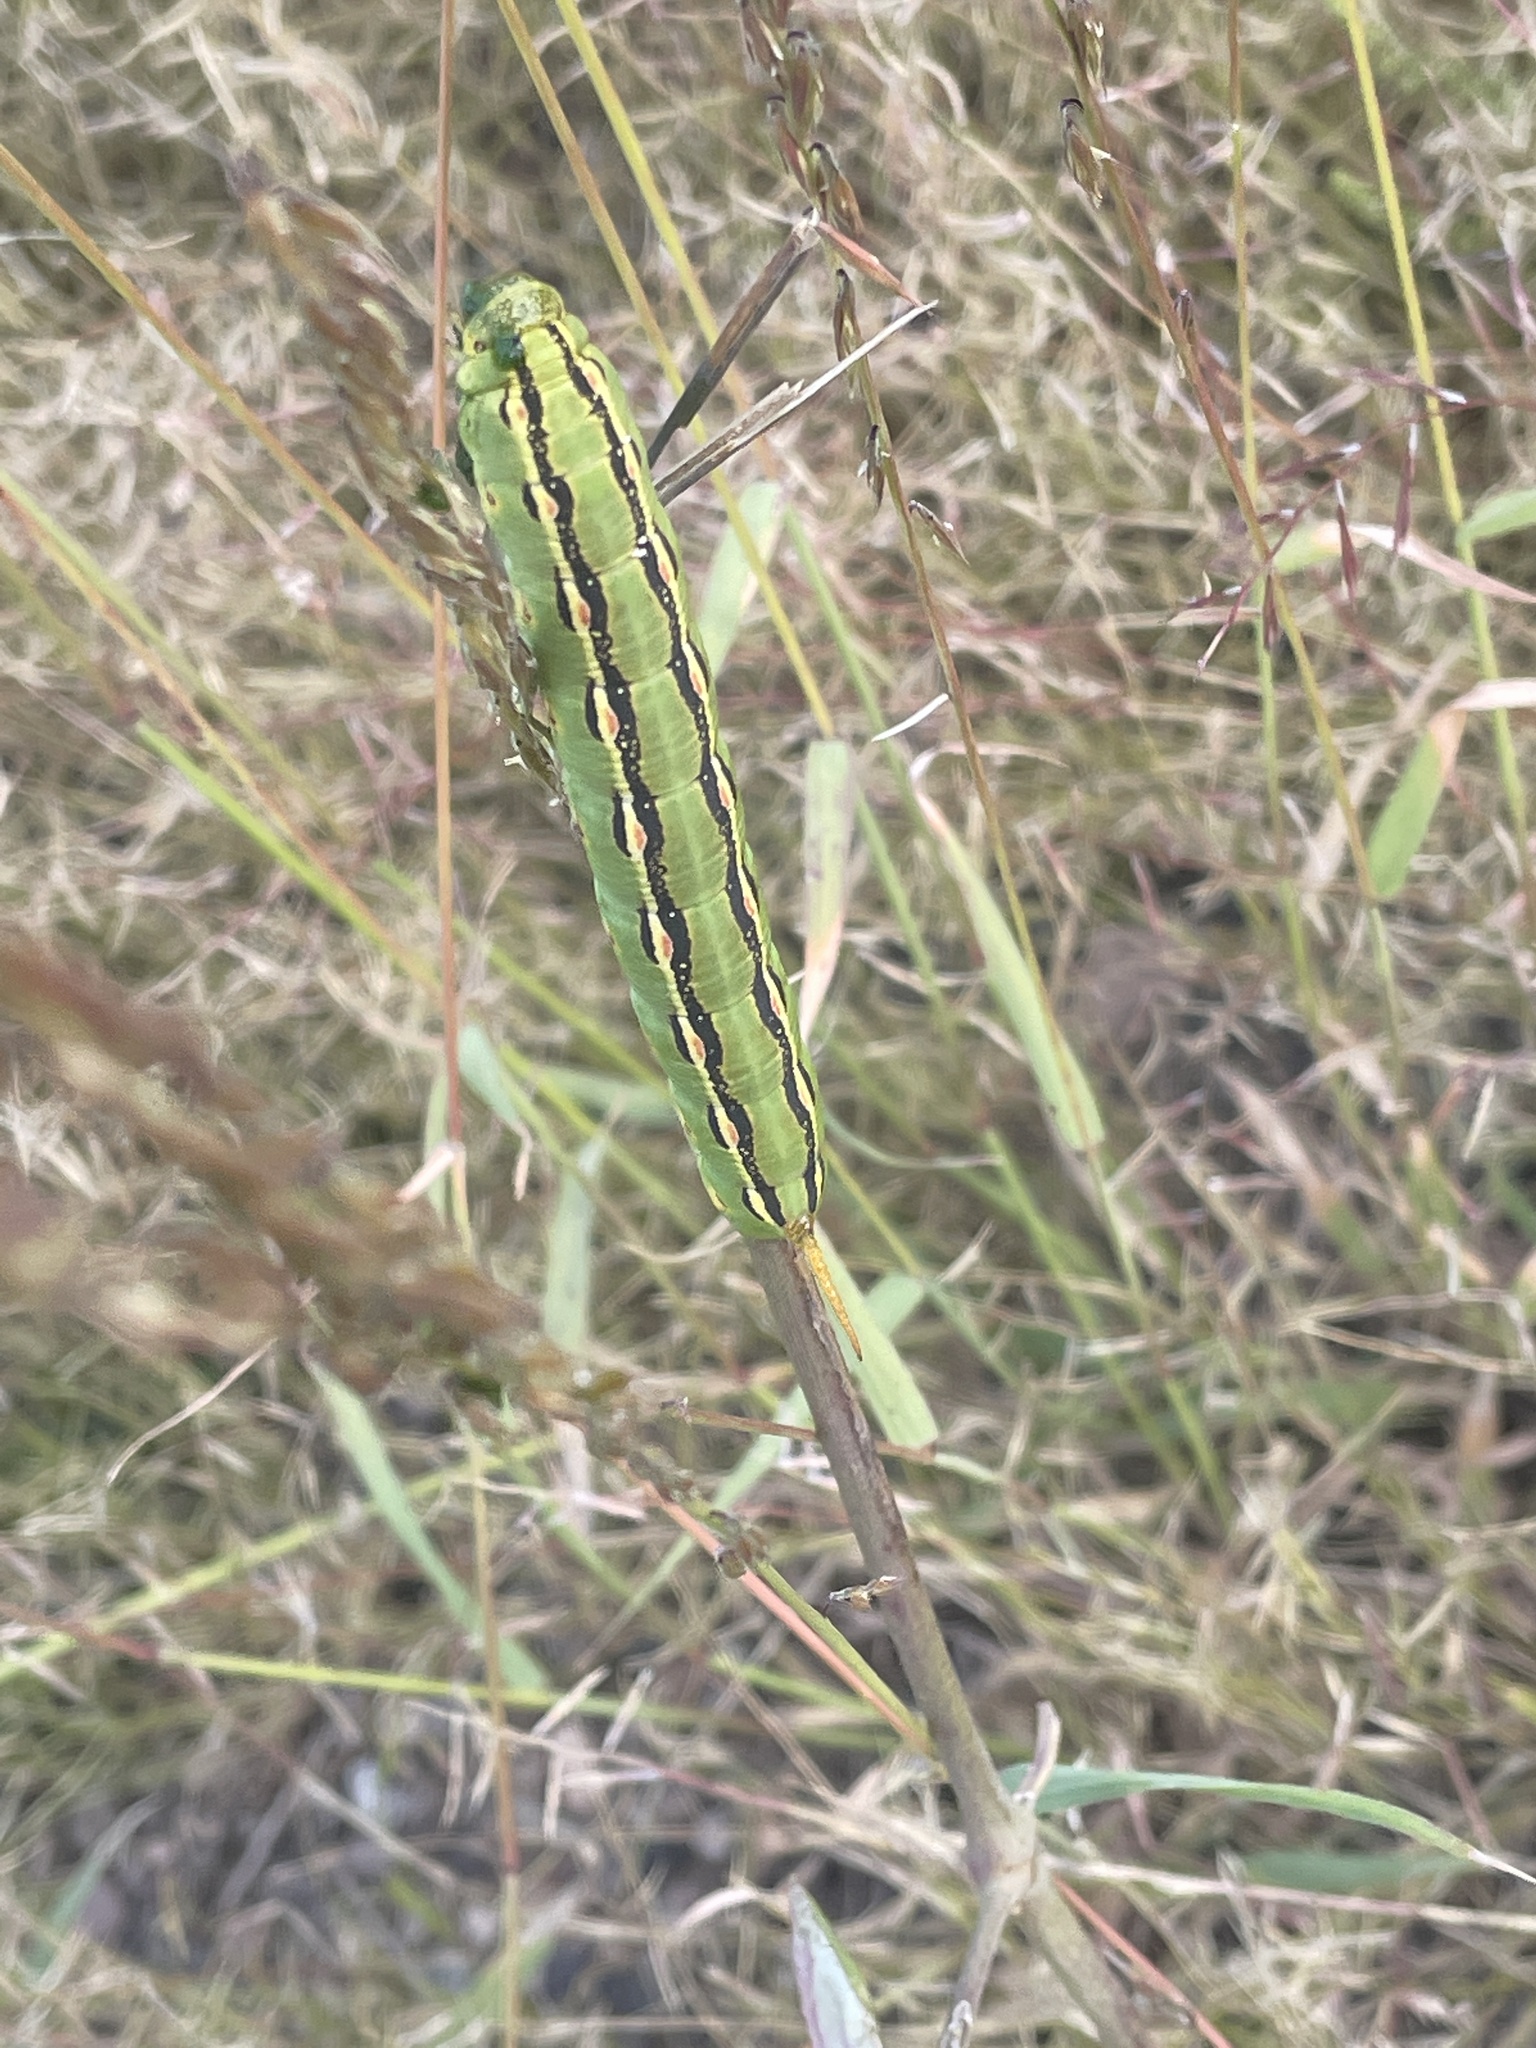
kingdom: Animalia
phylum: Arthropoda
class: Insecta
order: Lepidoptera
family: Sphingidae
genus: Hyles
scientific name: Hyles lineata
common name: White-lined sphinx
